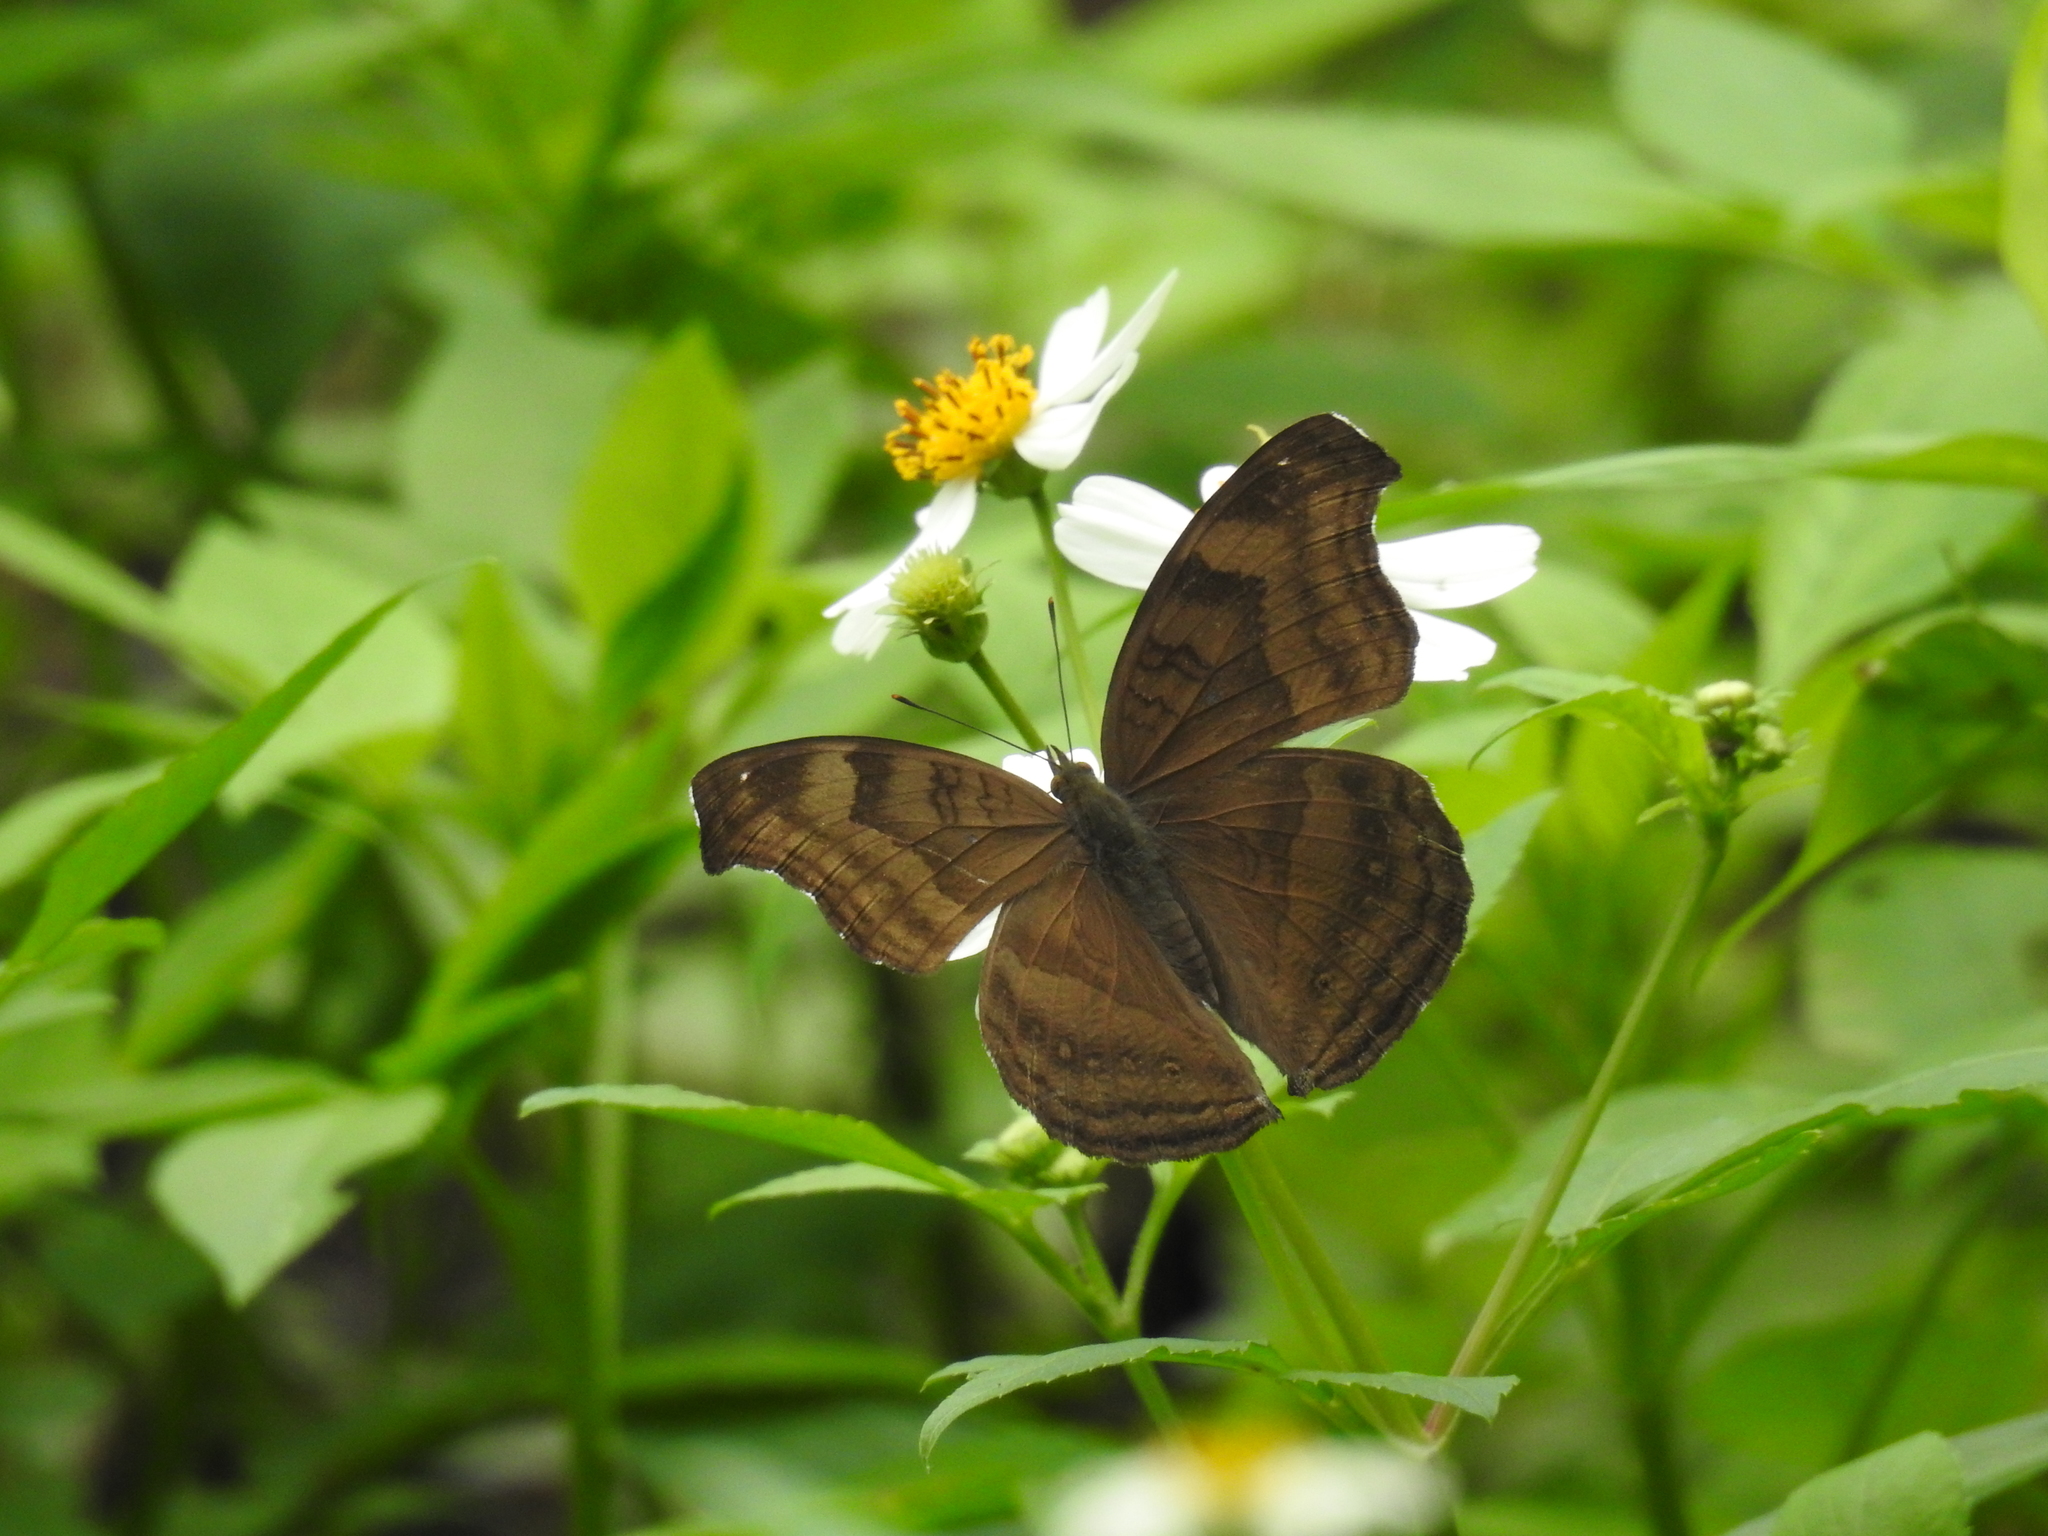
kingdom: Animalia
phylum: Arthropoda
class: Insecta
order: Lepidoptera
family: Nymphalidae
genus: Junonia
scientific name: Junonia iphita
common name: Chocolate pansy
